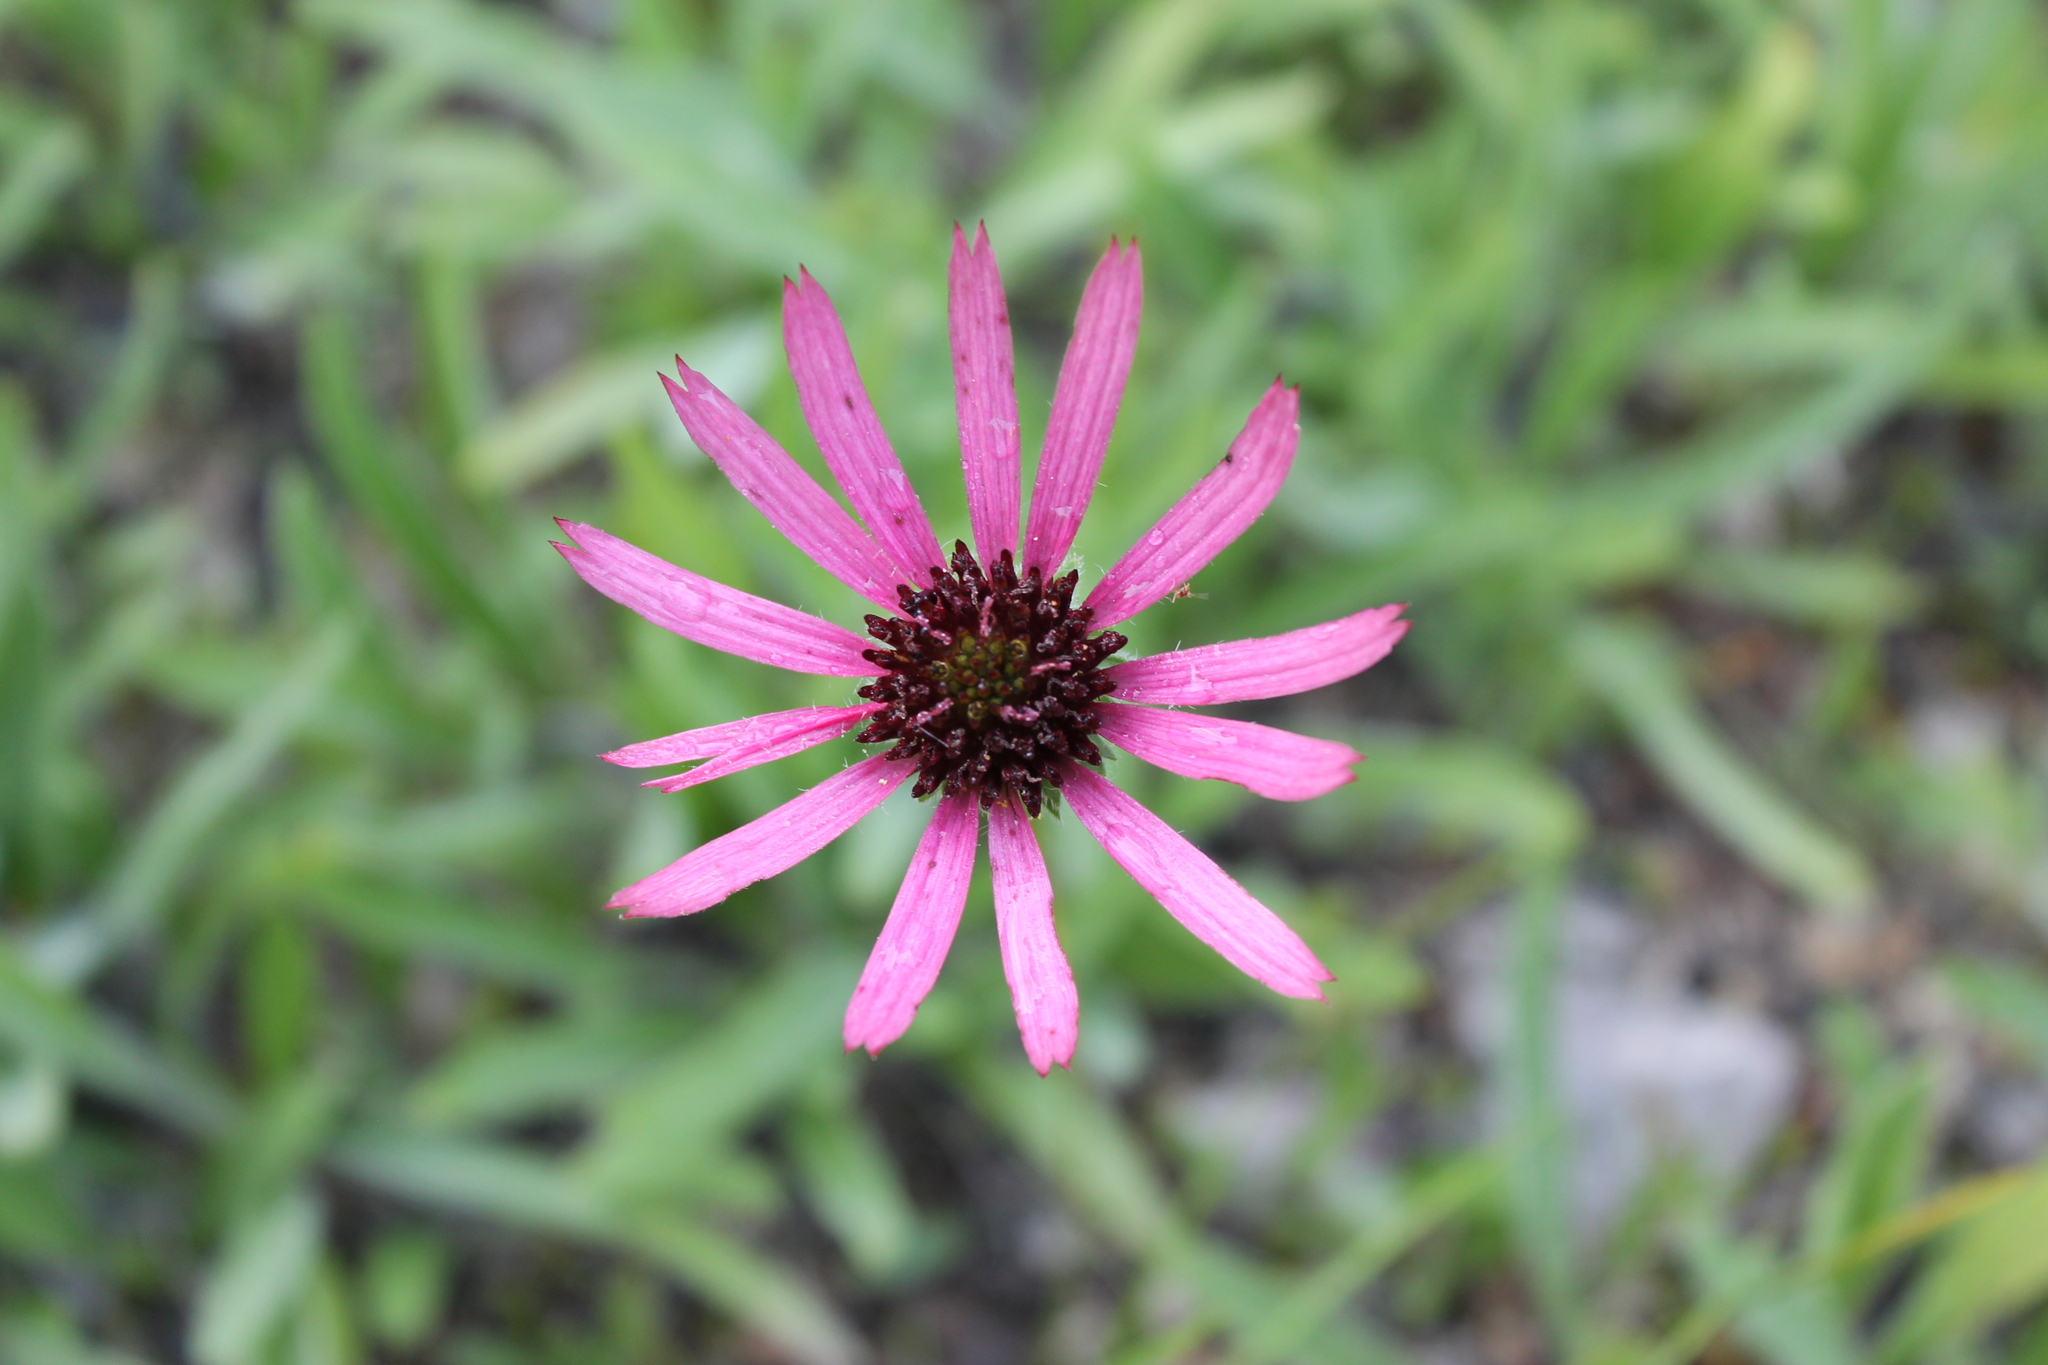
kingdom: Plantae
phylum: Tracheophyta
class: Magnoliopsida
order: Asterales
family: Asteraceae
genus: Echinacea
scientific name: Echinacea tennesseensis
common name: Tennessee purple-coneflower
